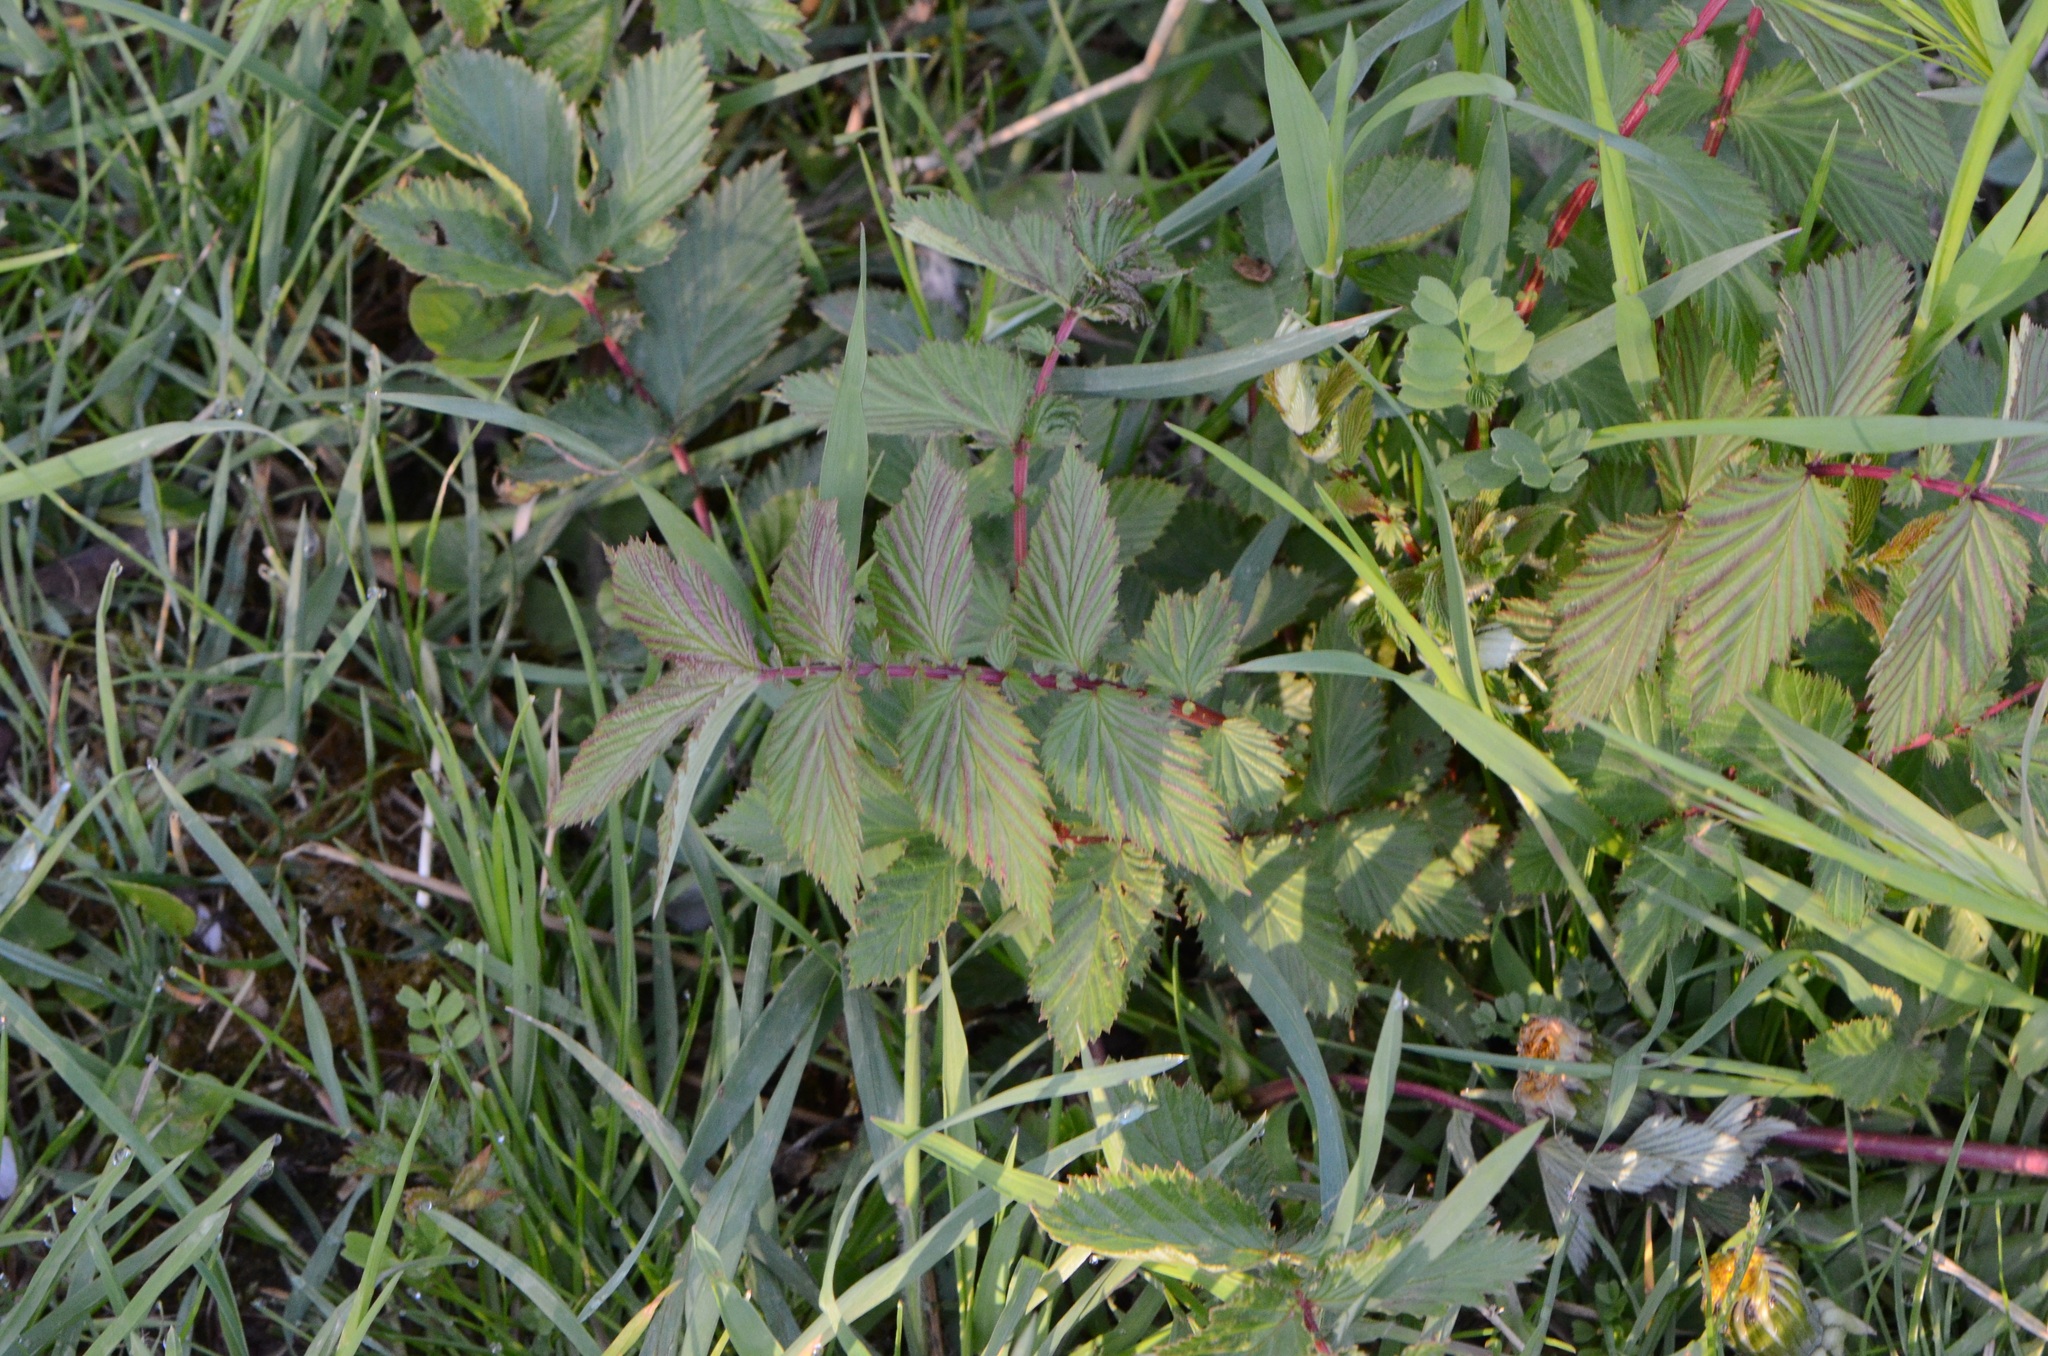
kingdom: Plantae
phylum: Tracheophyta
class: Magnoliopsida
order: Rosales
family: Rosaceae
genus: Filipendula
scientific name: Filipendula ulmaria
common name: Meadowsweet
